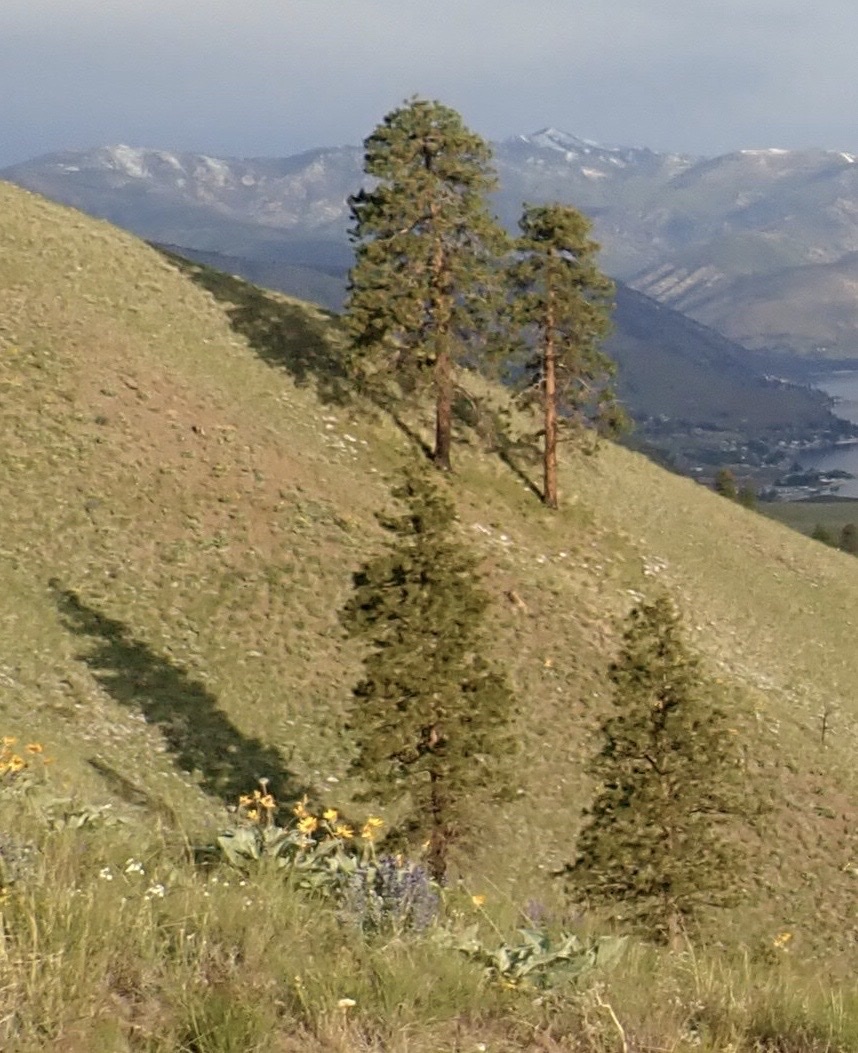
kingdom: Plantae
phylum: Tracheophyta
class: Pinopsida
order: Pinales
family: Pinaceae
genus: Pinus
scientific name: Pinus ponderosa
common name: Western yellow-pine
